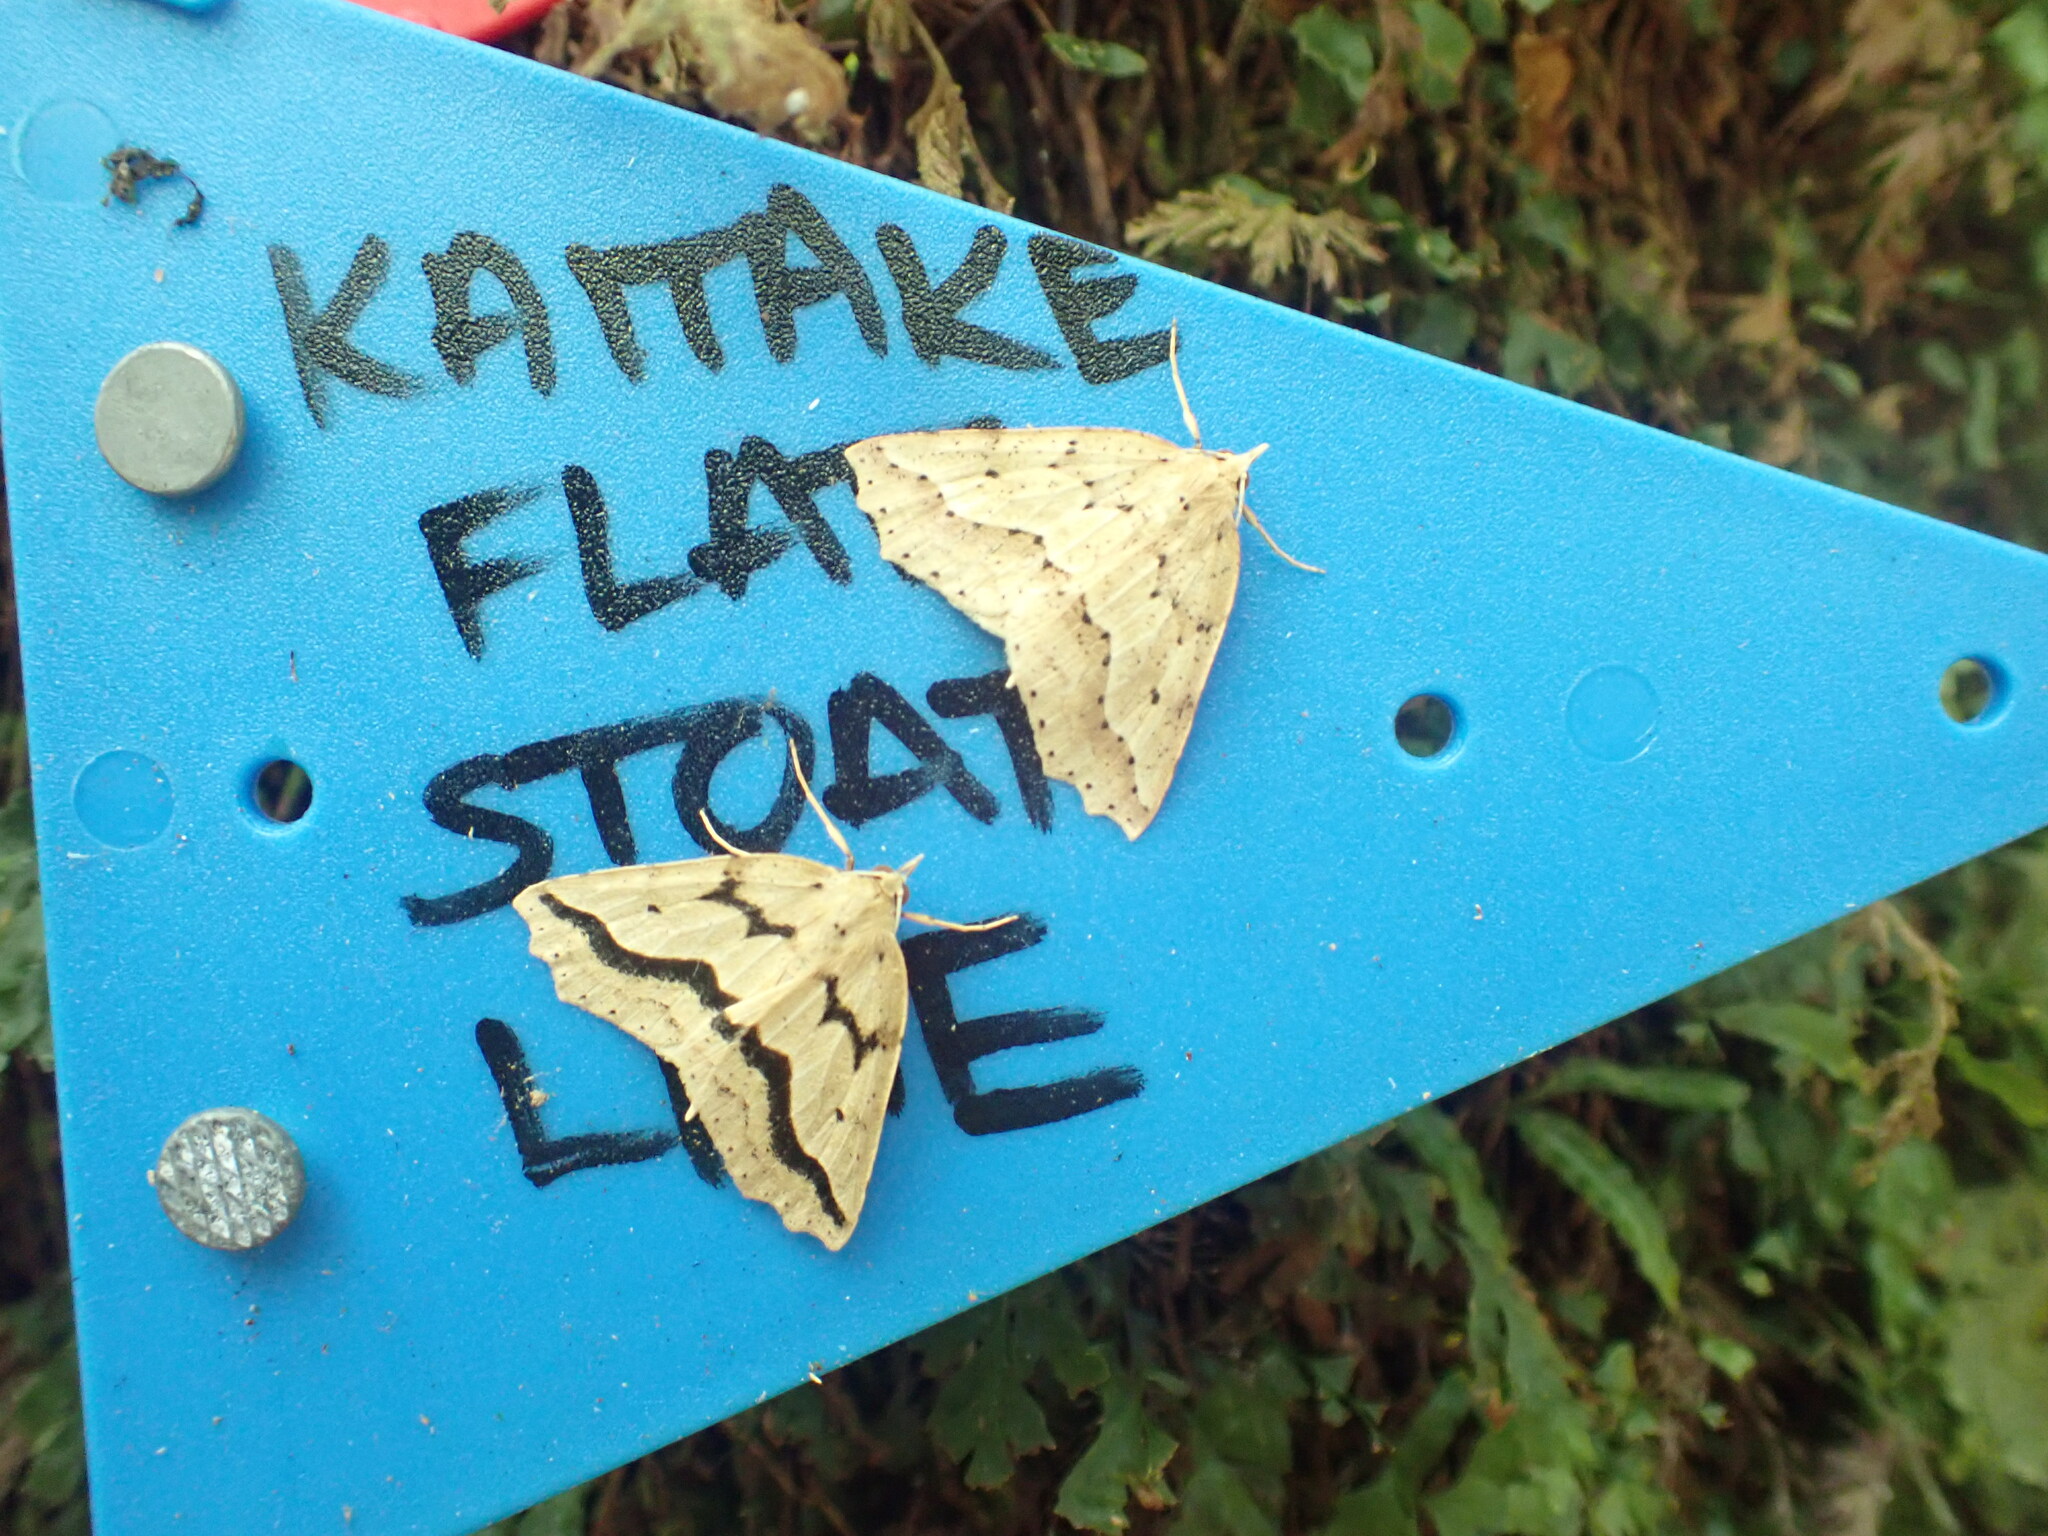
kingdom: Animalia
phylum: Arthropoda
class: Insecta
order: Lepidoptera
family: Geometridae
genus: Ischalis
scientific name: Ischalis variabilis
